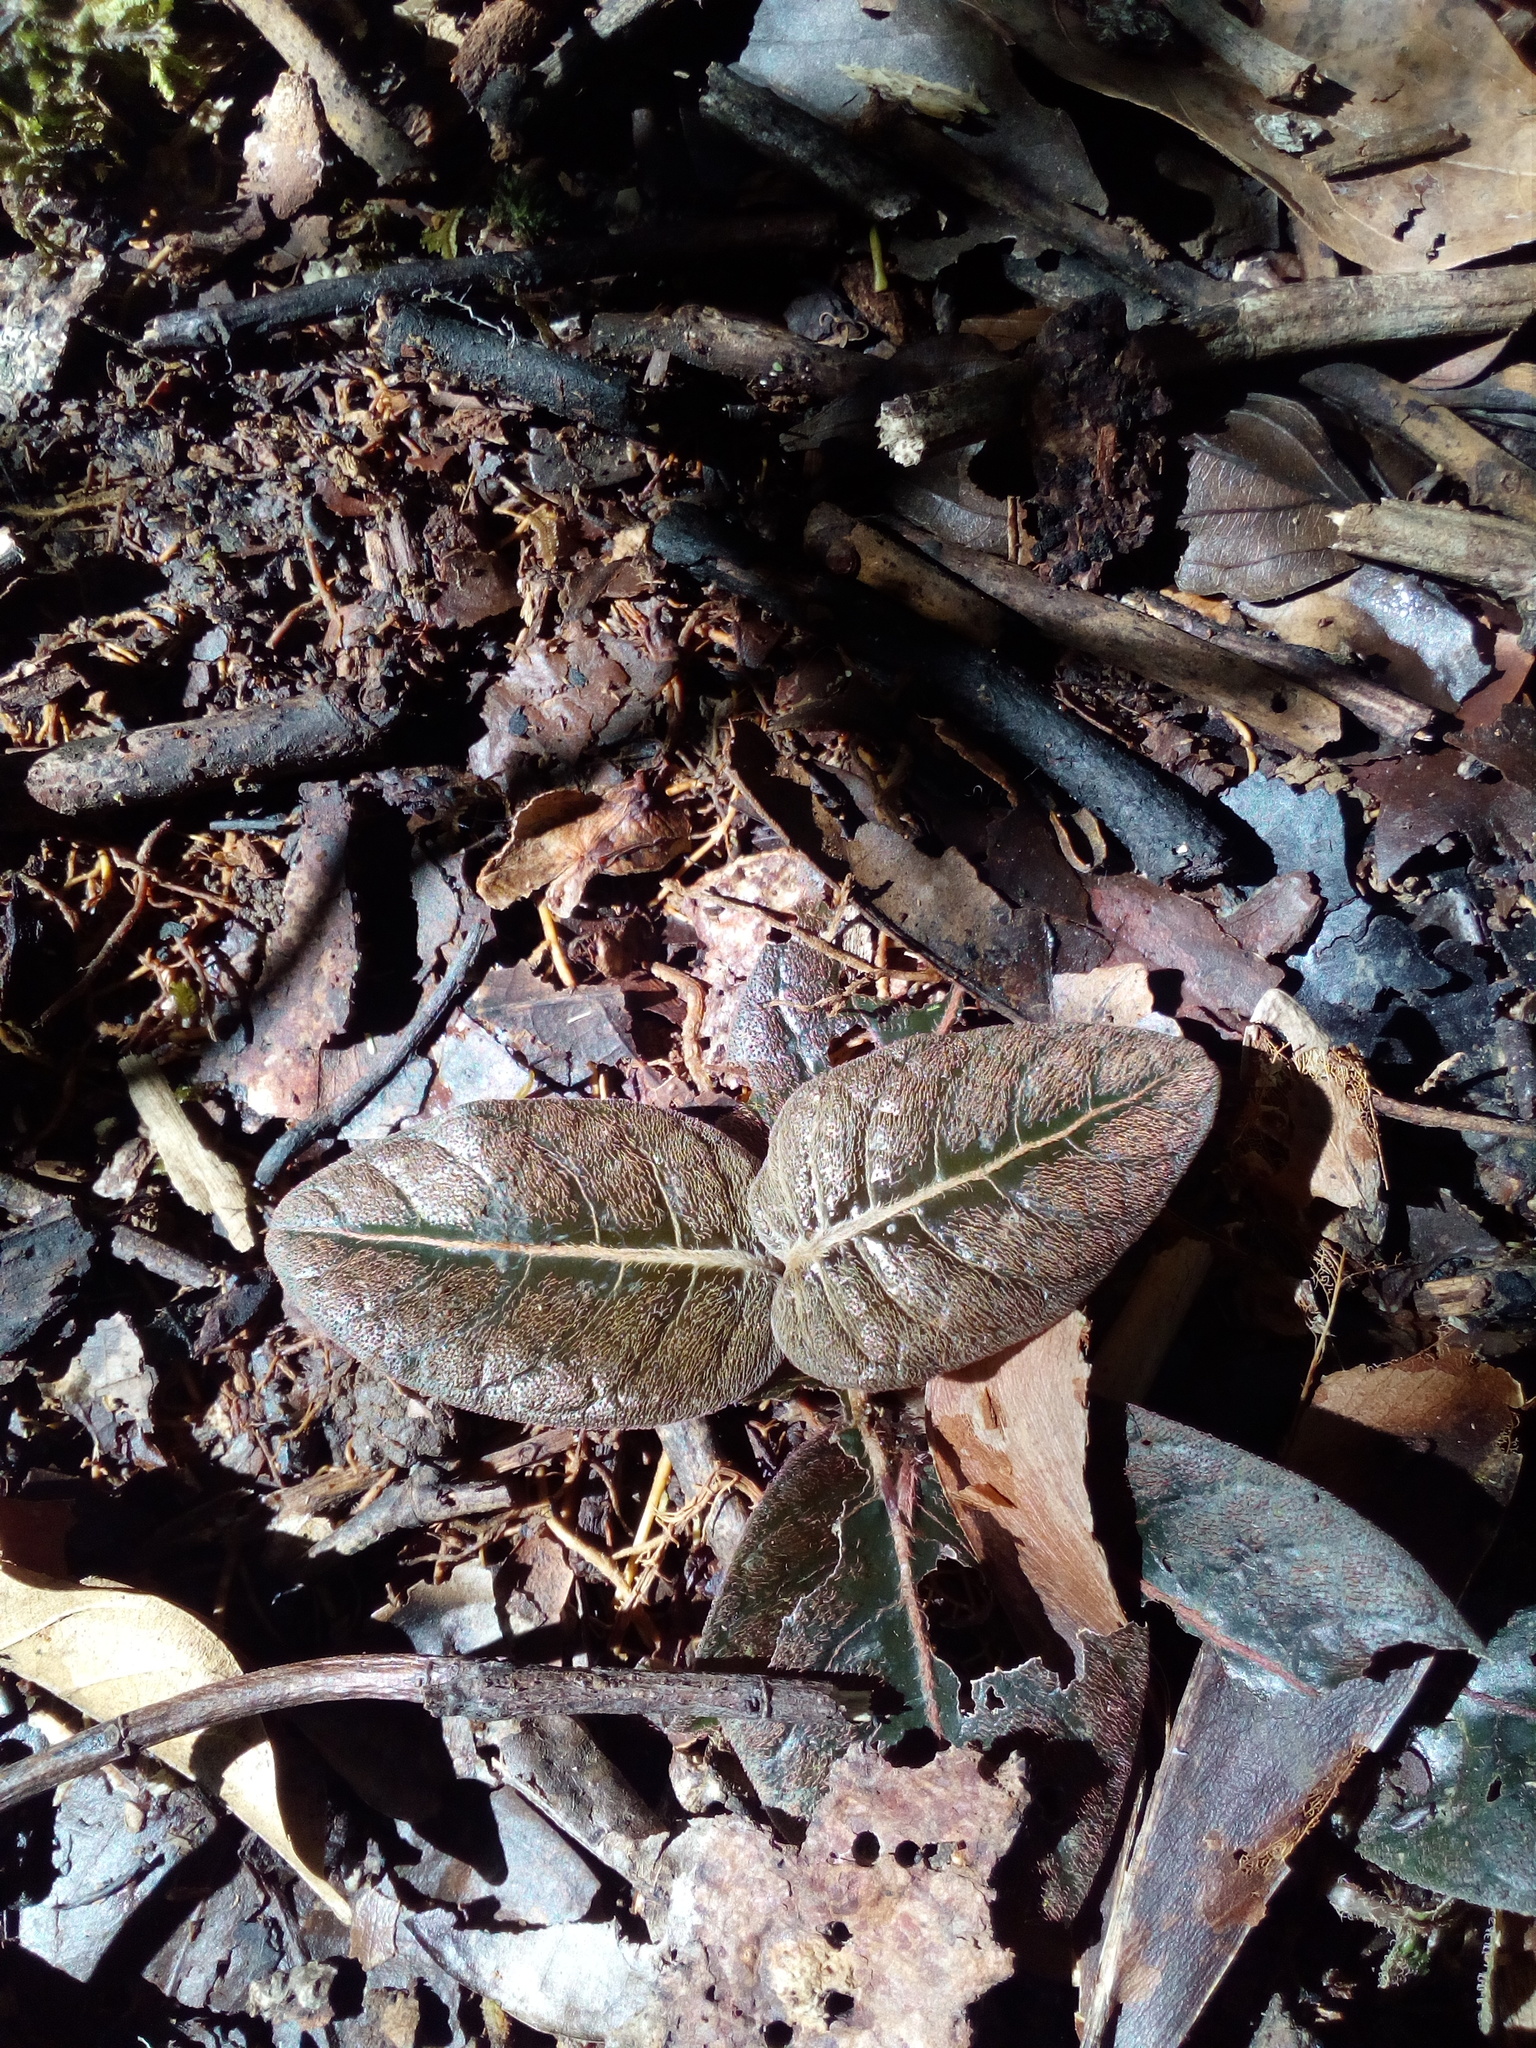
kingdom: Plantae
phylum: Tracheophyta
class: Magnoliopsida
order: Gentianales
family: Rubiaceae
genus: Palicourea
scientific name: Palicourea alba
